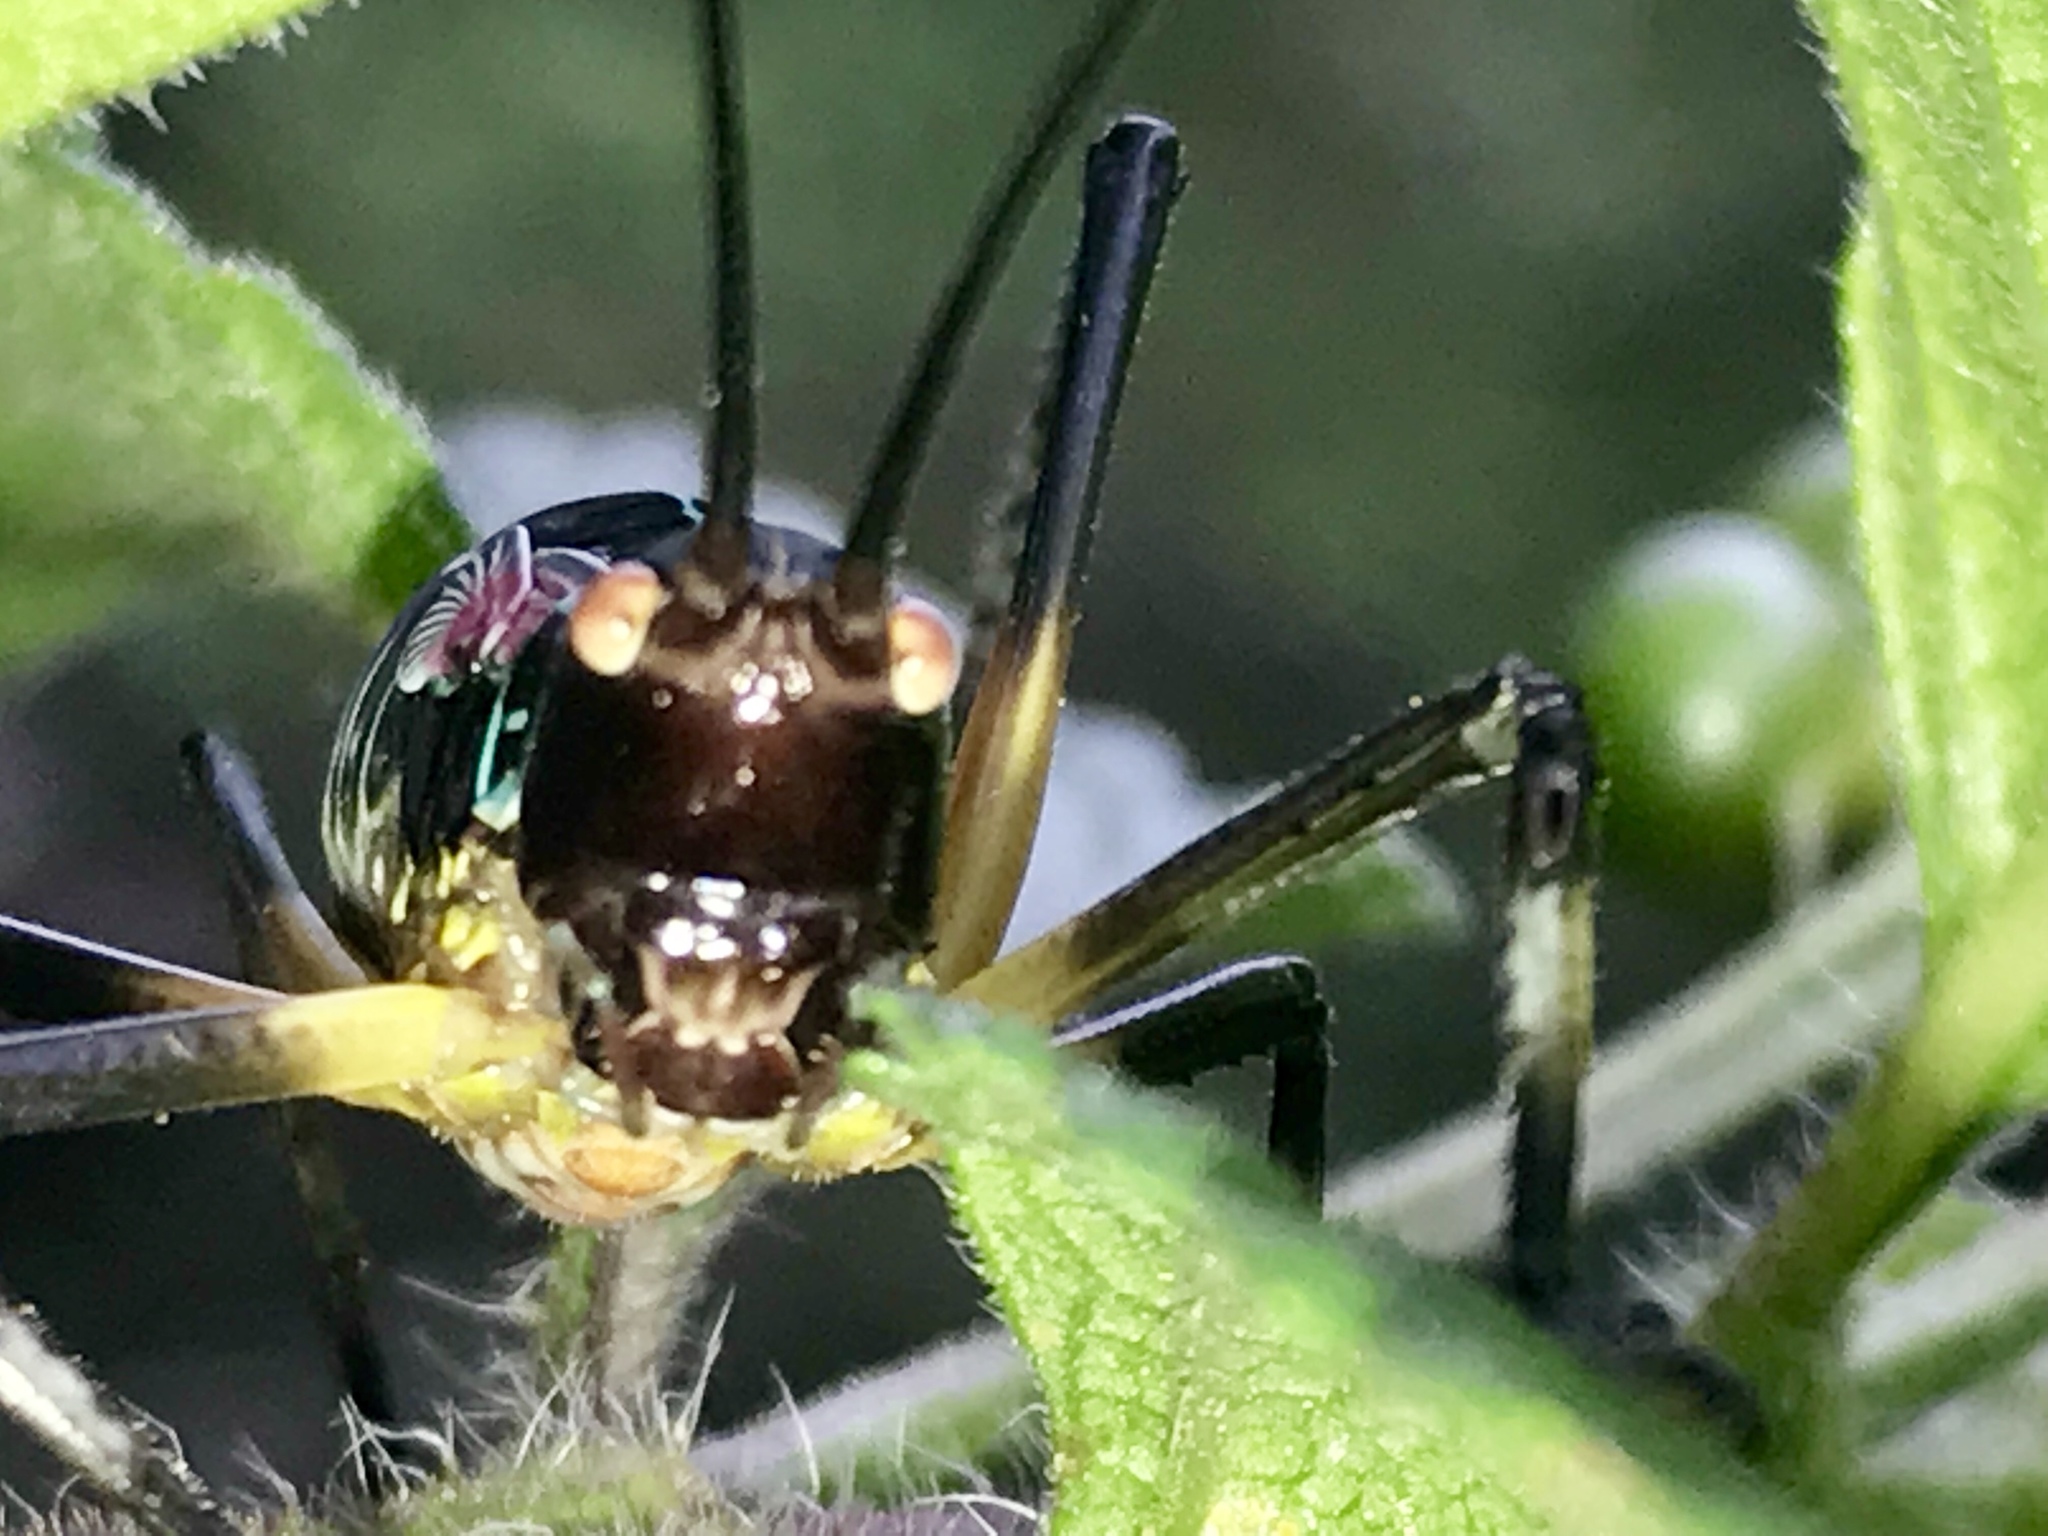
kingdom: Animalia
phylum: Arthropoda
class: Insecta
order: Orthoptera
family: Tettigoniidae
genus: Pterophylla
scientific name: Pterophylla beltrani
